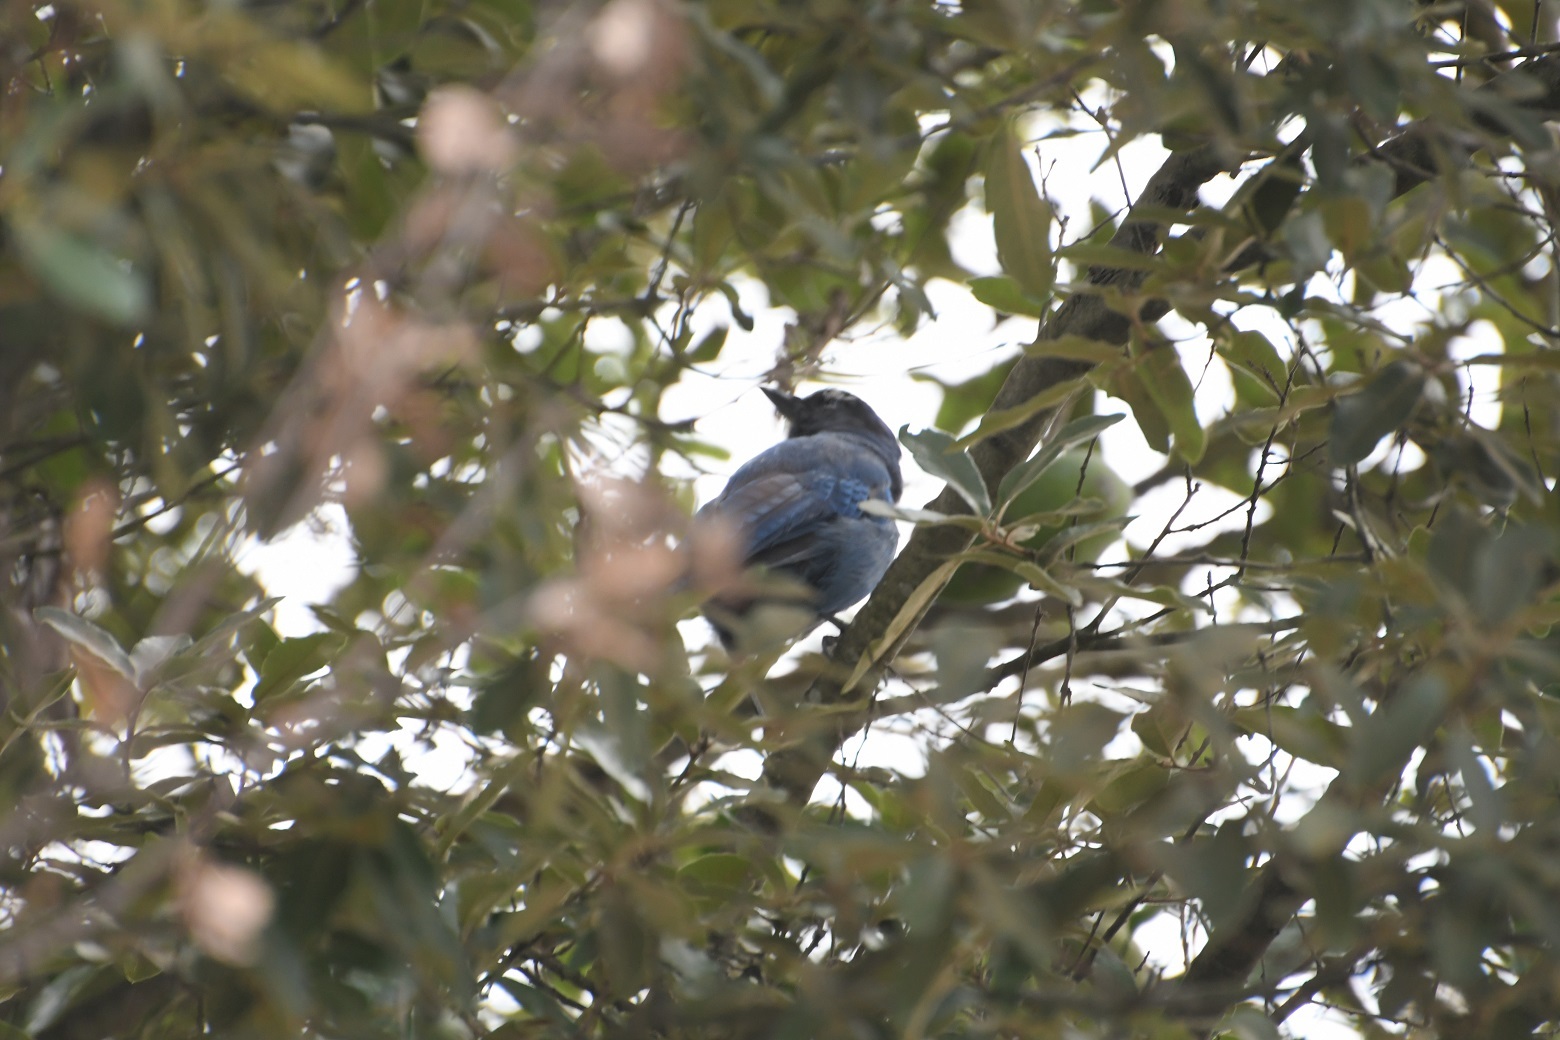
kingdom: Animalia
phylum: Chordata
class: Aves
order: Passeriformes
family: Corvidae
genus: Cyanocitta
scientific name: Cyanocitta stelleri
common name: Steller's jay
